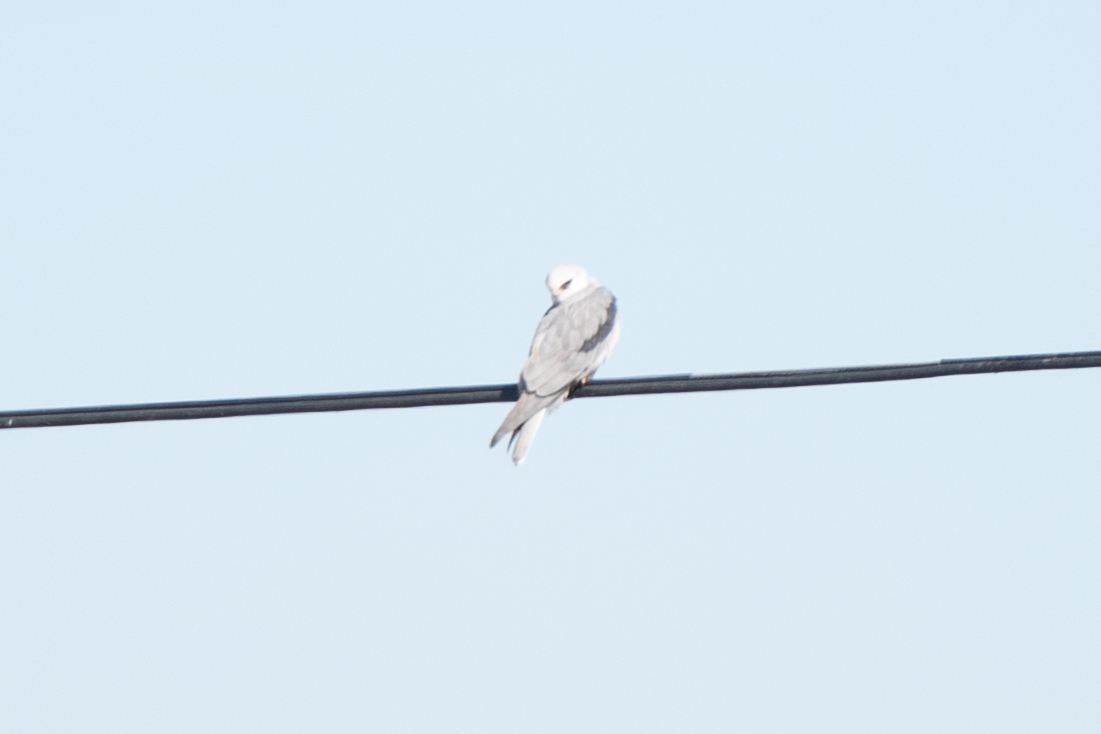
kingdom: Animalia
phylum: Chordata
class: Aves
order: Accipitriformes
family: Accipitridae
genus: Elanus
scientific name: Elanus leucurus
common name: White-tailed kite
